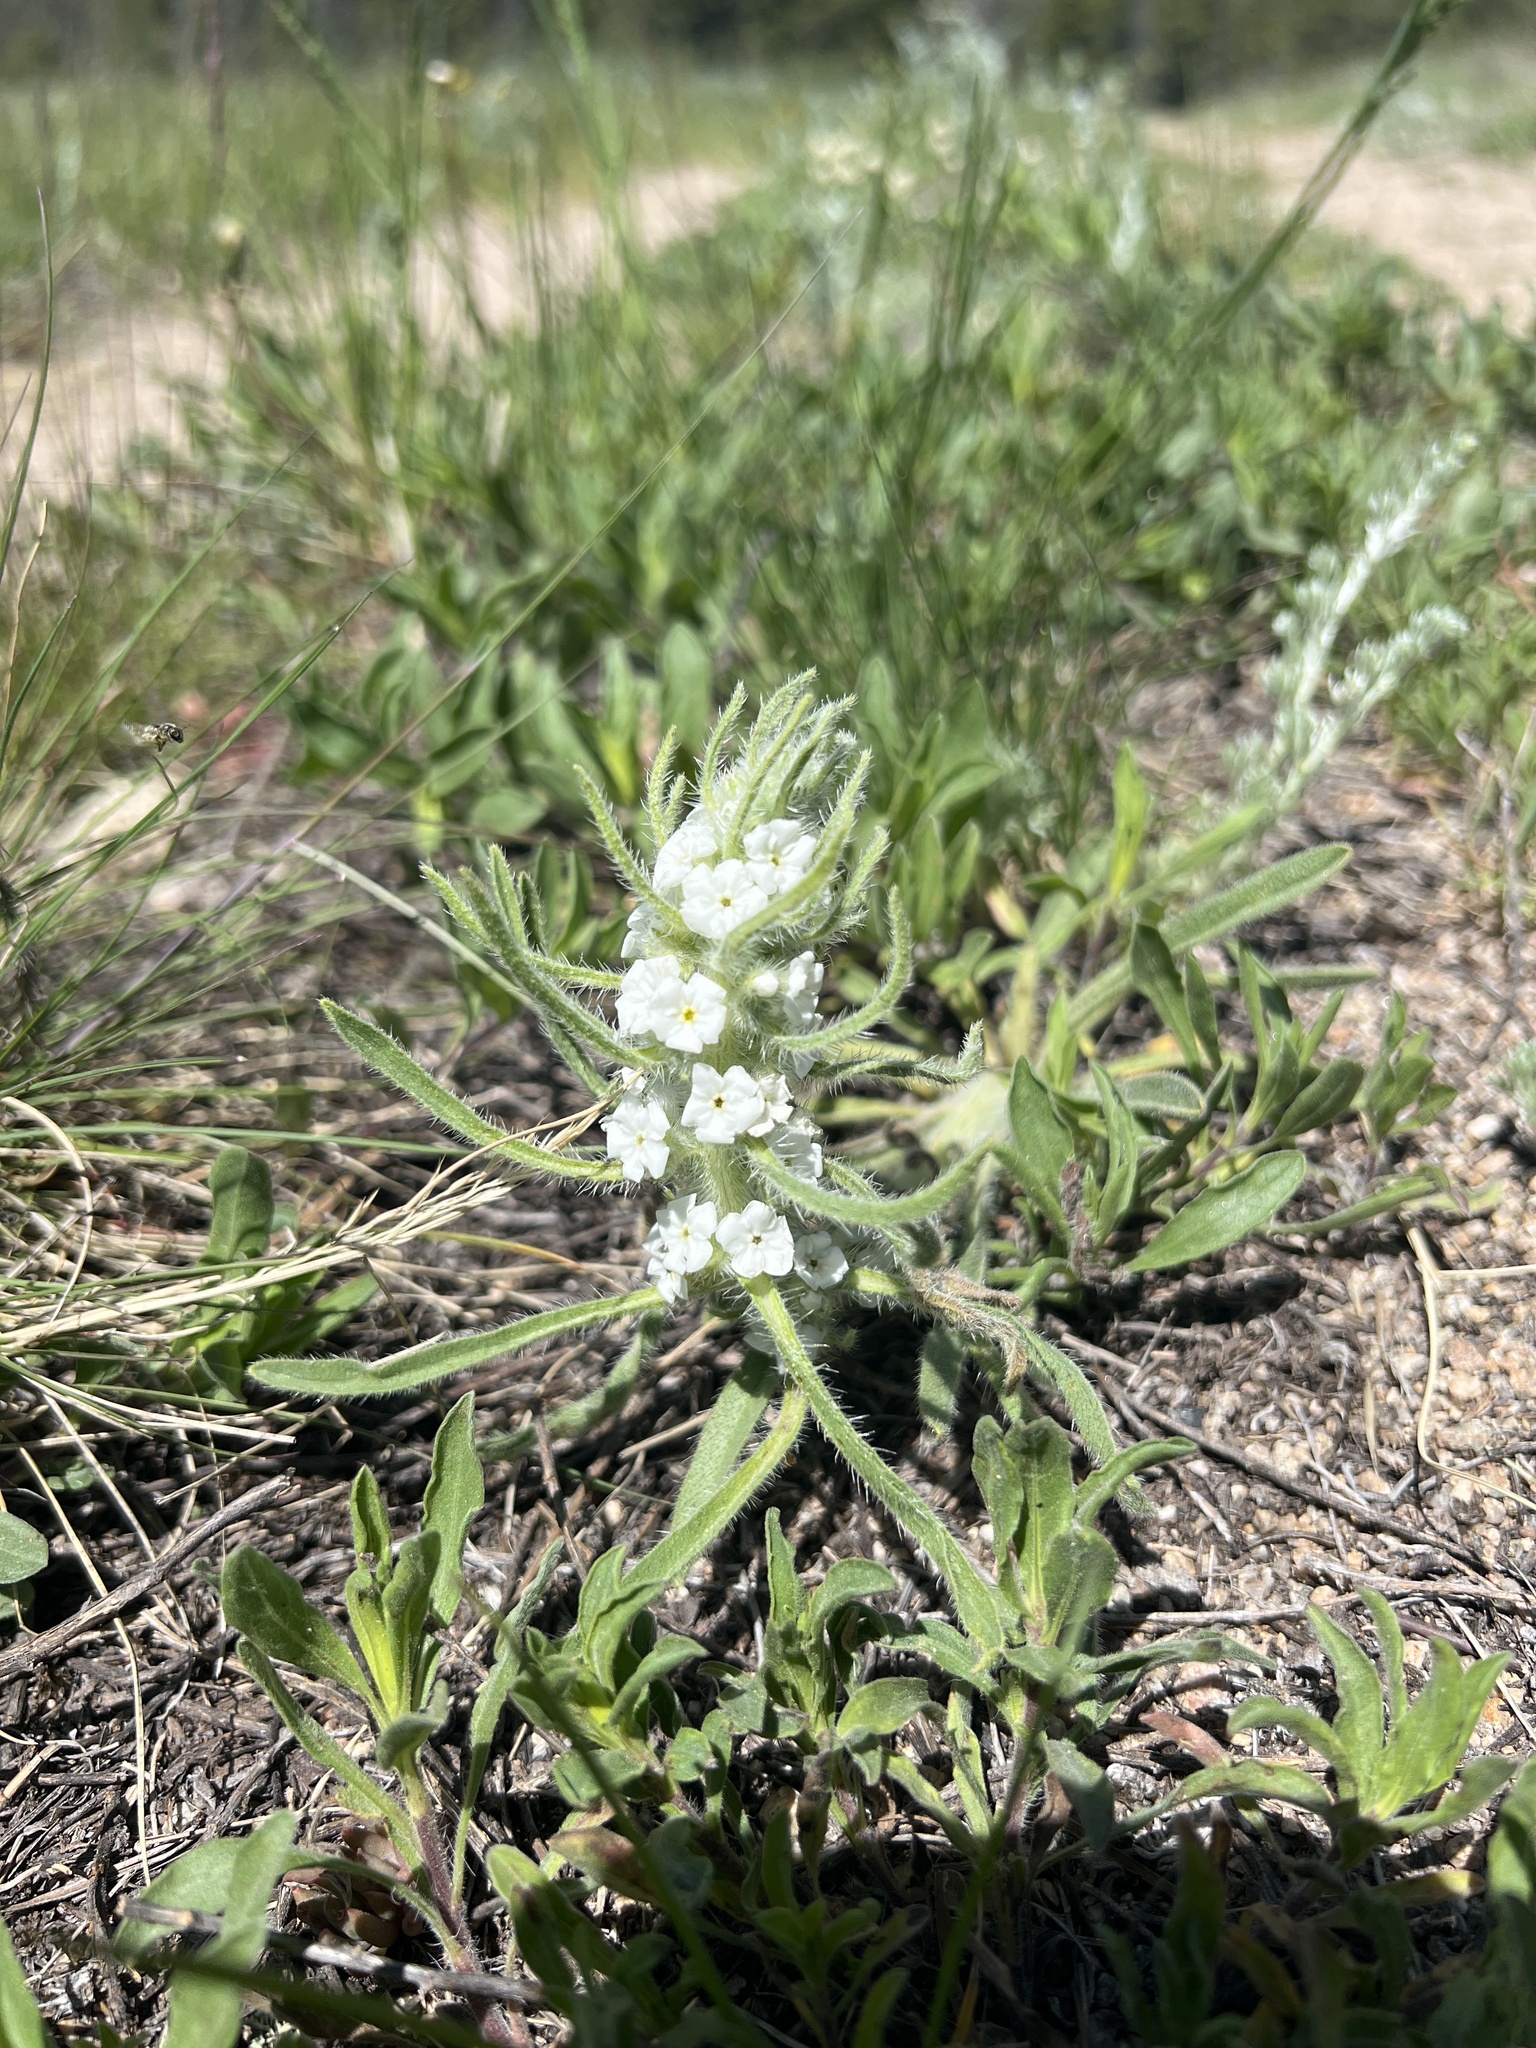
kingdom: Plantae
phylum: Tracheophyta
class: Magnoliopsida
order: Boraginales
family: Boraginaceae
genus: Oreocarya
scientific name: Oreocarya virgata
